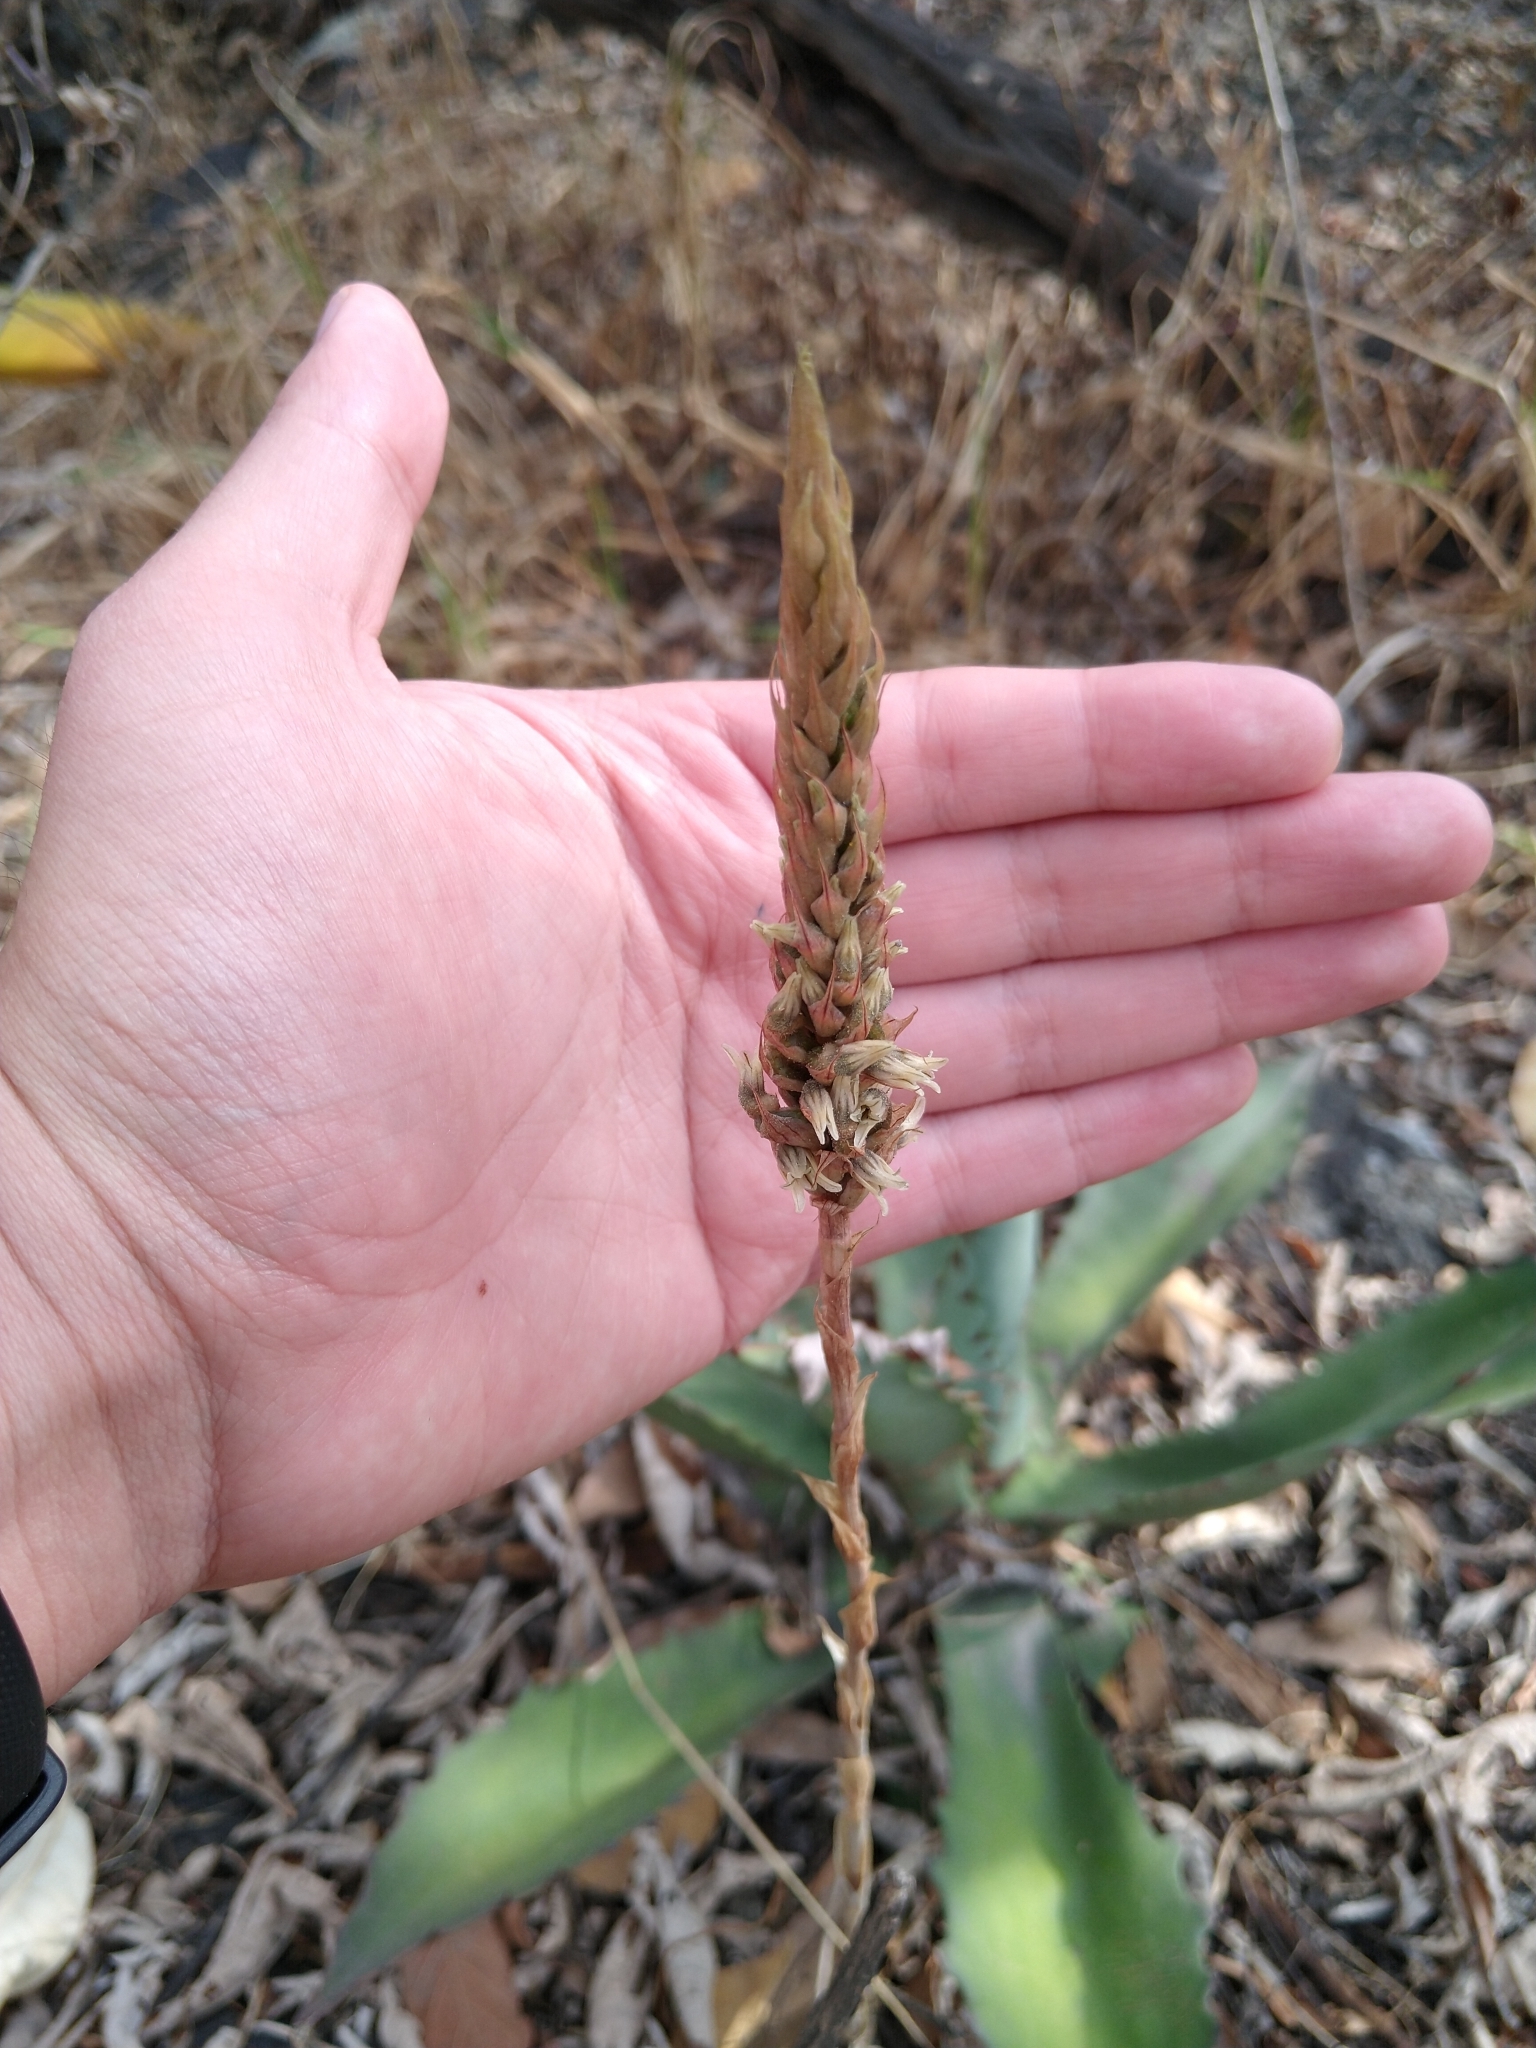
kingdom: Plantae
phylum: Tracheophyta
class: Liliopsida
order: Asparagales
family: Orchidaceae
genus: Aulosepalum
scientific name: Aulosepalum pyramidale
